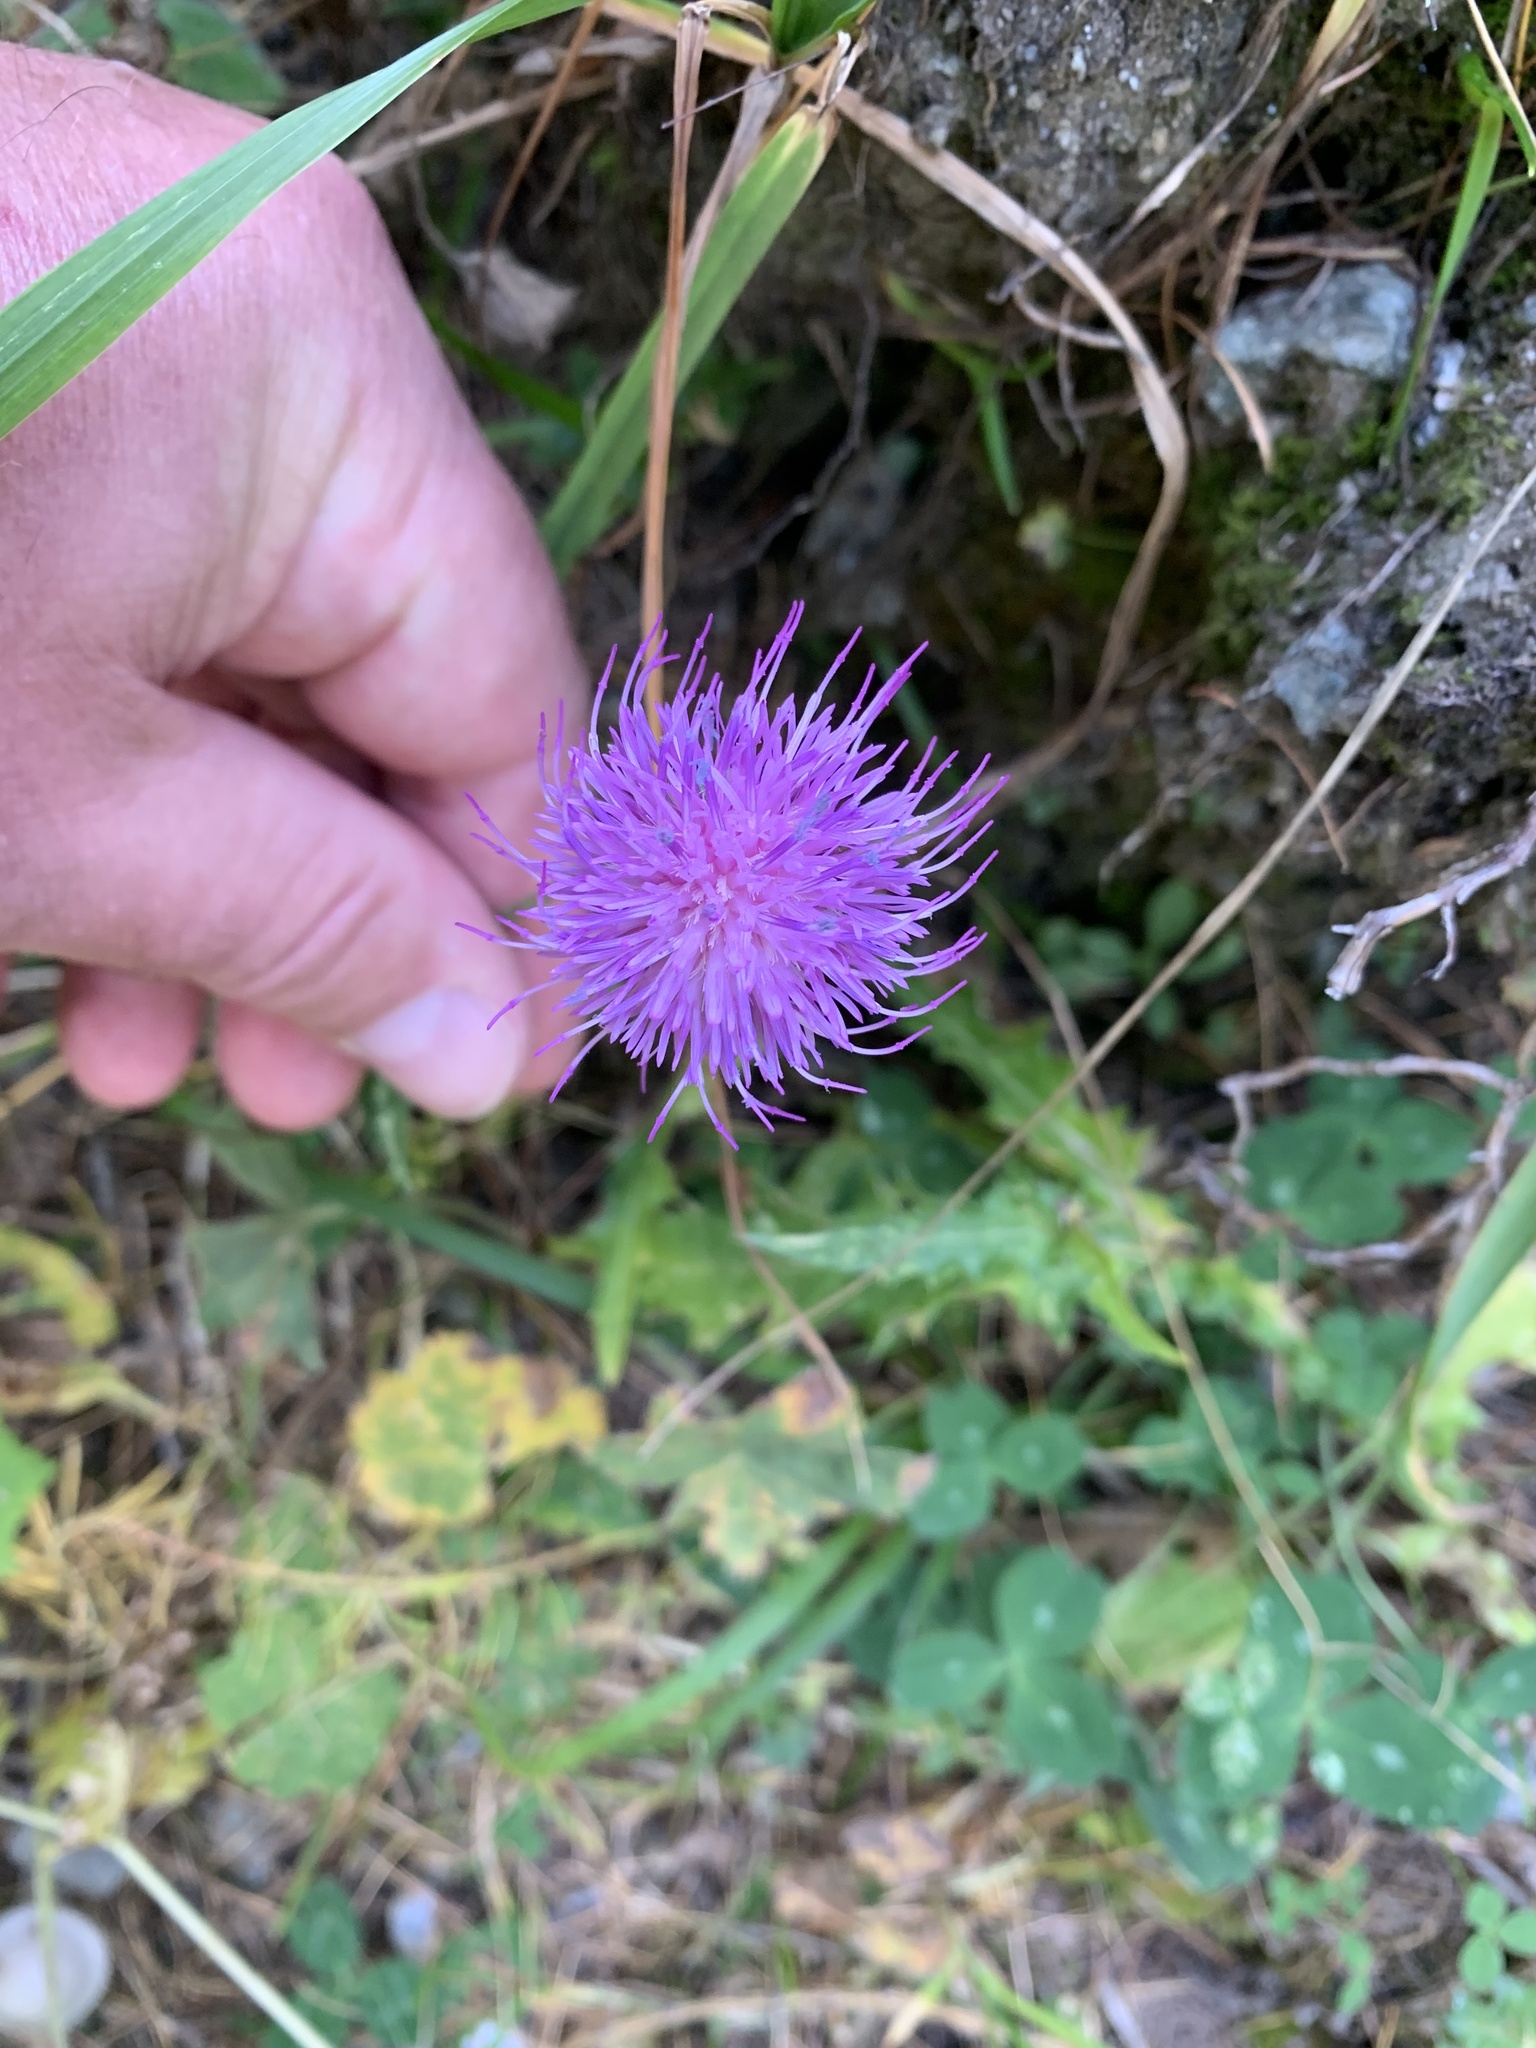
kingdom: Plantae
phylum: Tracheophyta
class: Magnoliopsida
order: Asterales
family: Asteraceae
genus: Carduus
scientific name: Carduus defloratus
